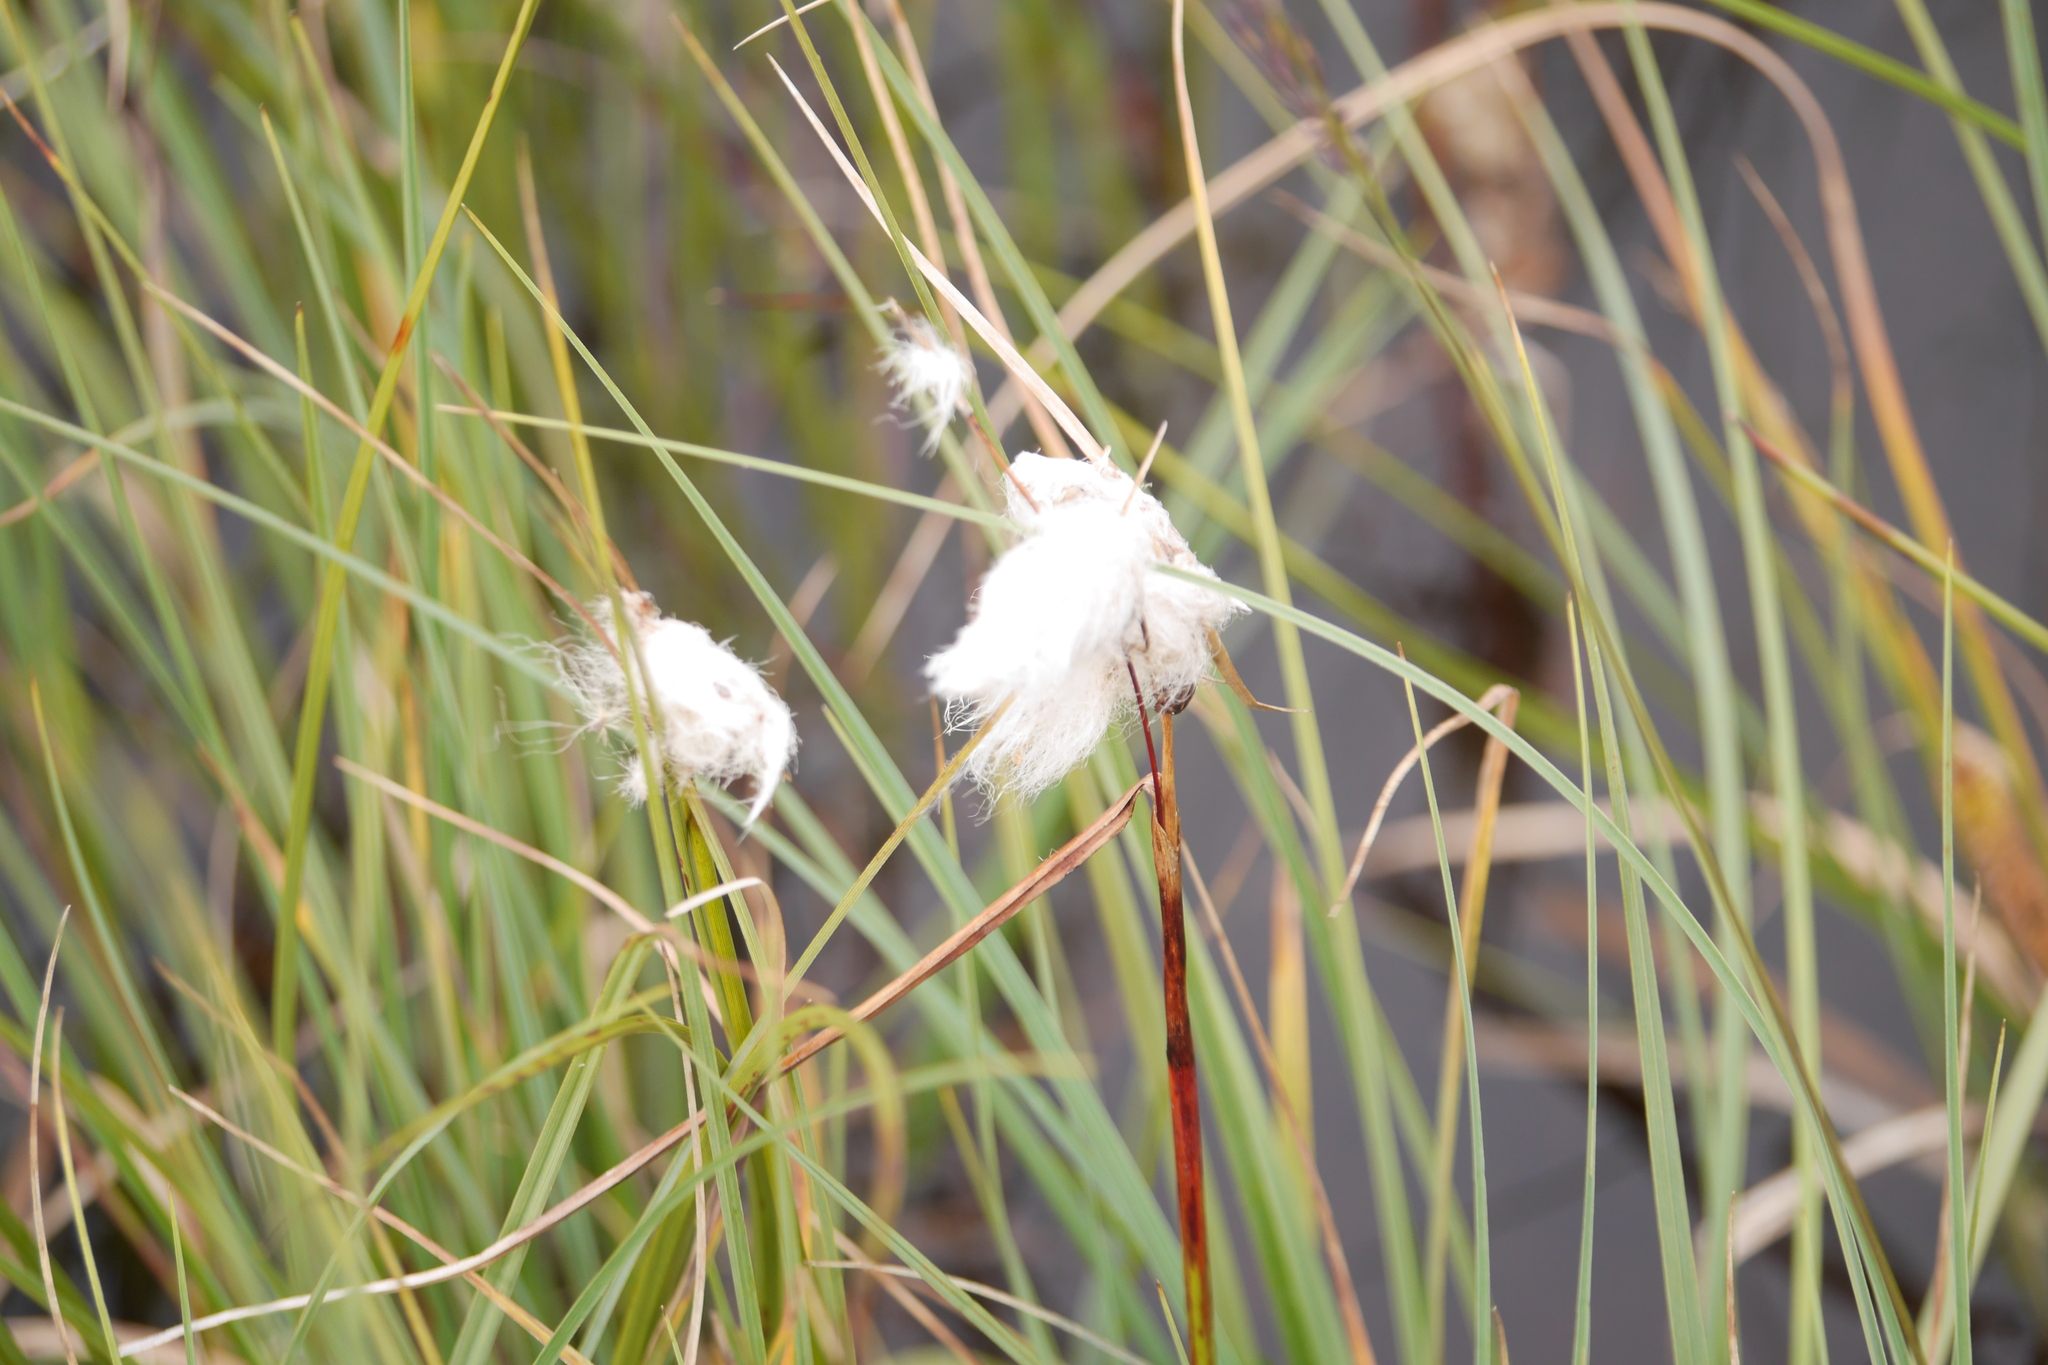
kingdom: Plantae
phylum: Tracheophyta
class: Liliopsida
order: Poales
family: Cyperaceae
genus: Eriophorum
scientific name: Eriophorum angustifolium
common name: Common cottongrass
